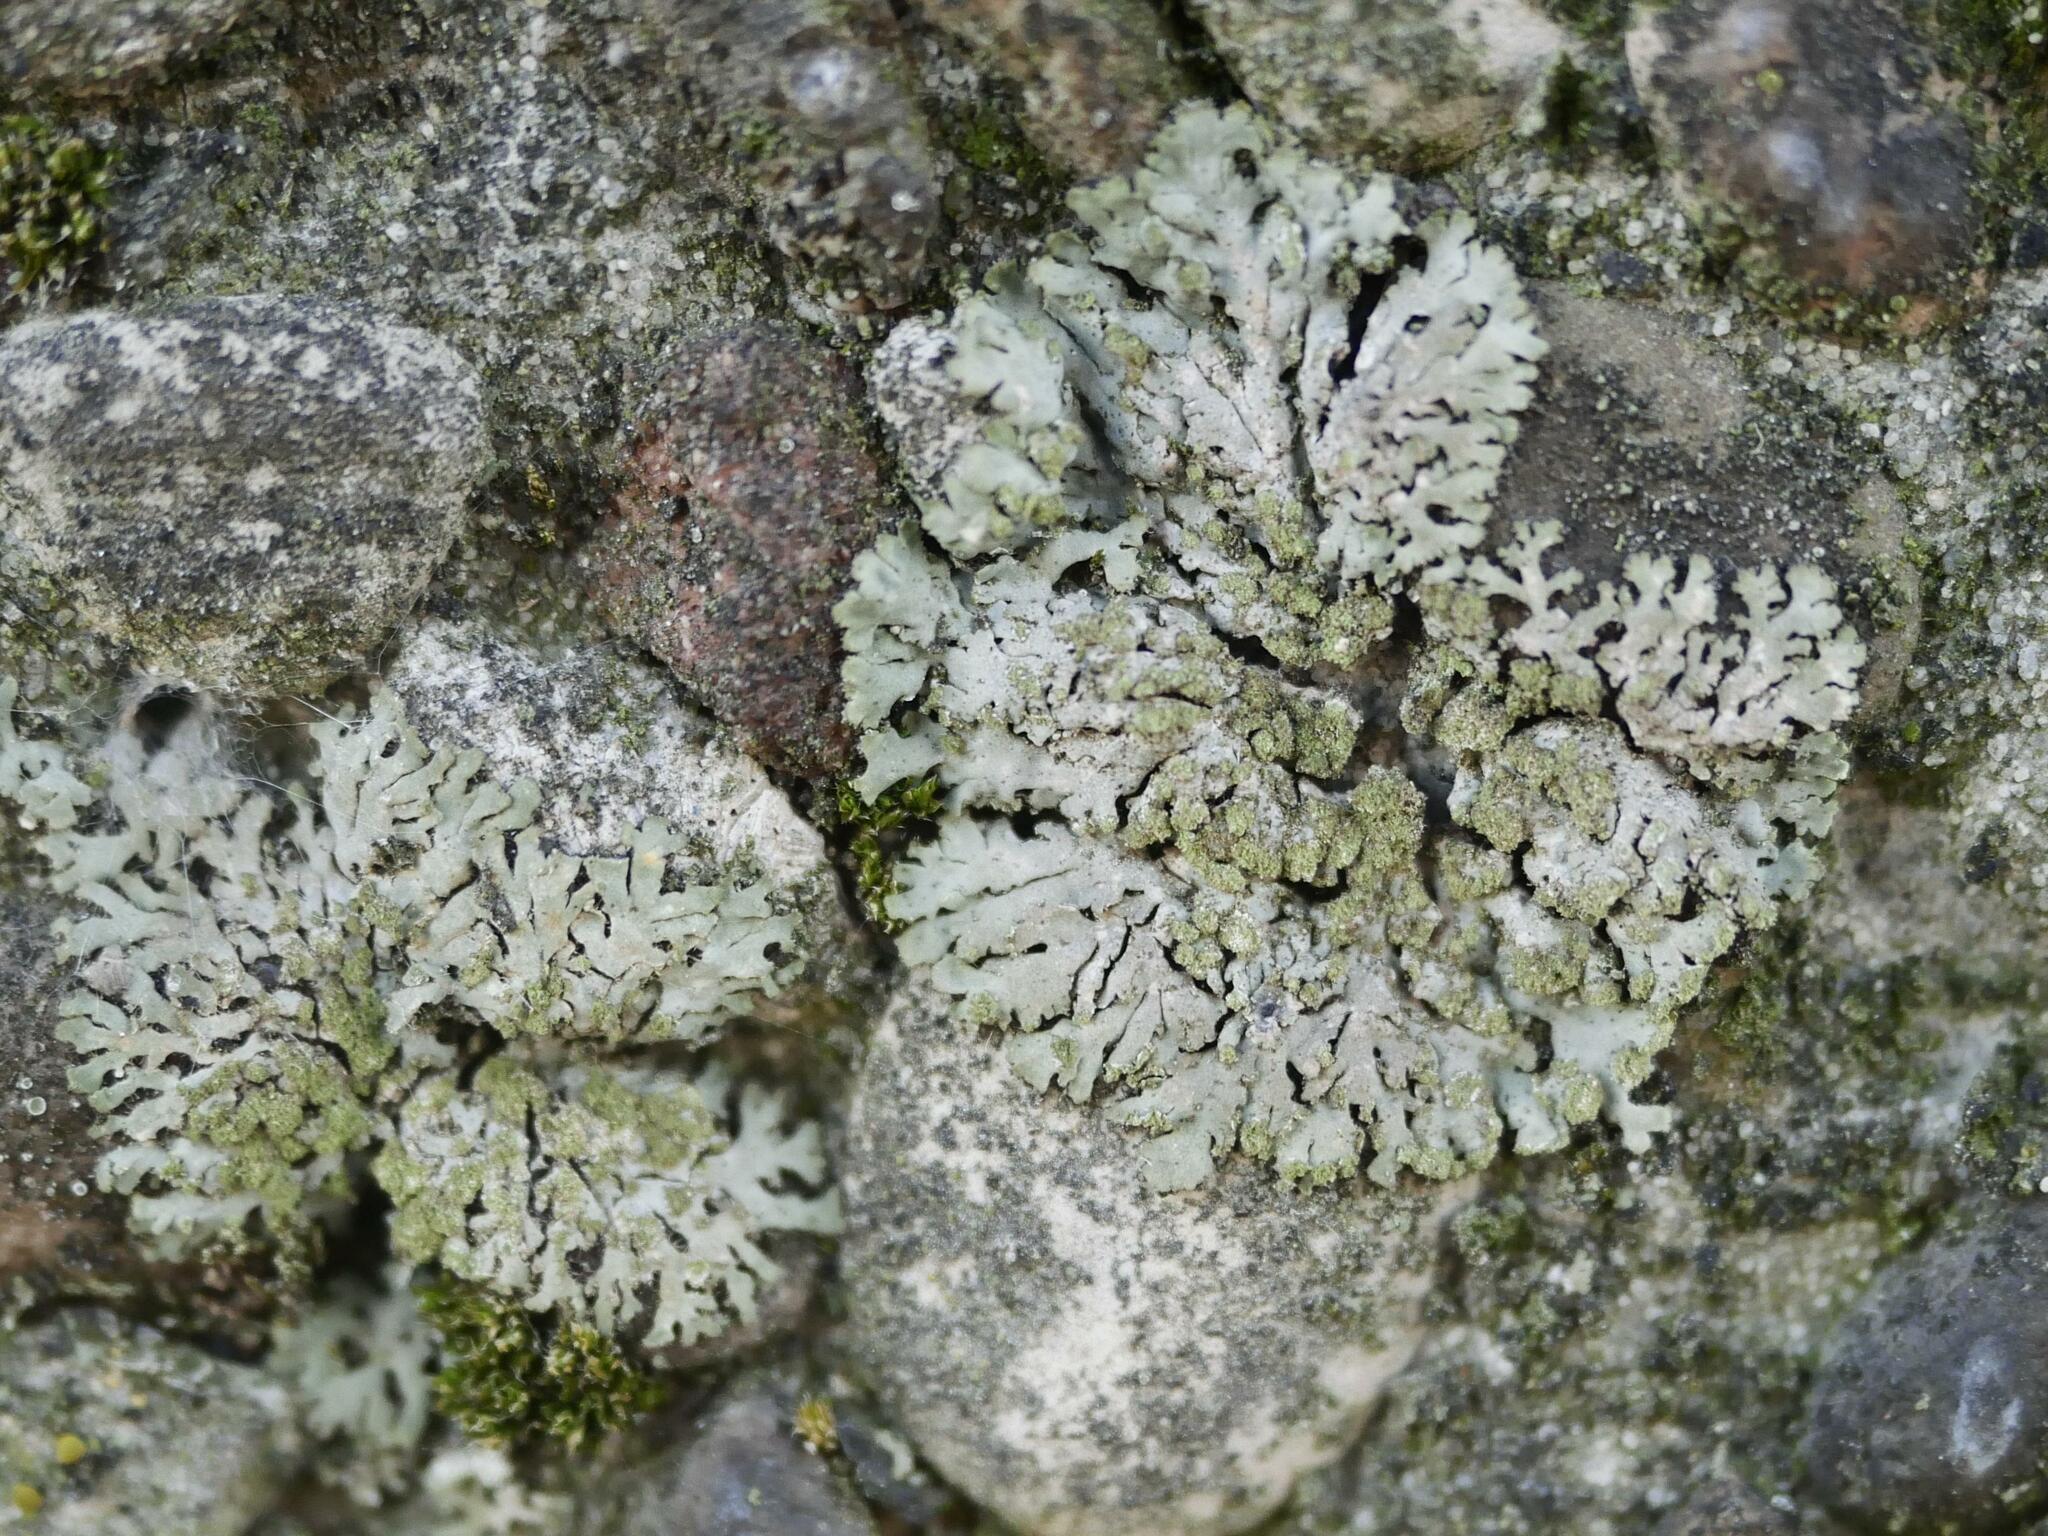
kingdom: Fungi
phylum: Ascomycota
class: Lecanoromycetes
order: Caliciales
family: Physciaceae
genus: Phaeophyscia
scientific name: Phaeophyscia orbicularis
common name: Mealy shadow lichen
